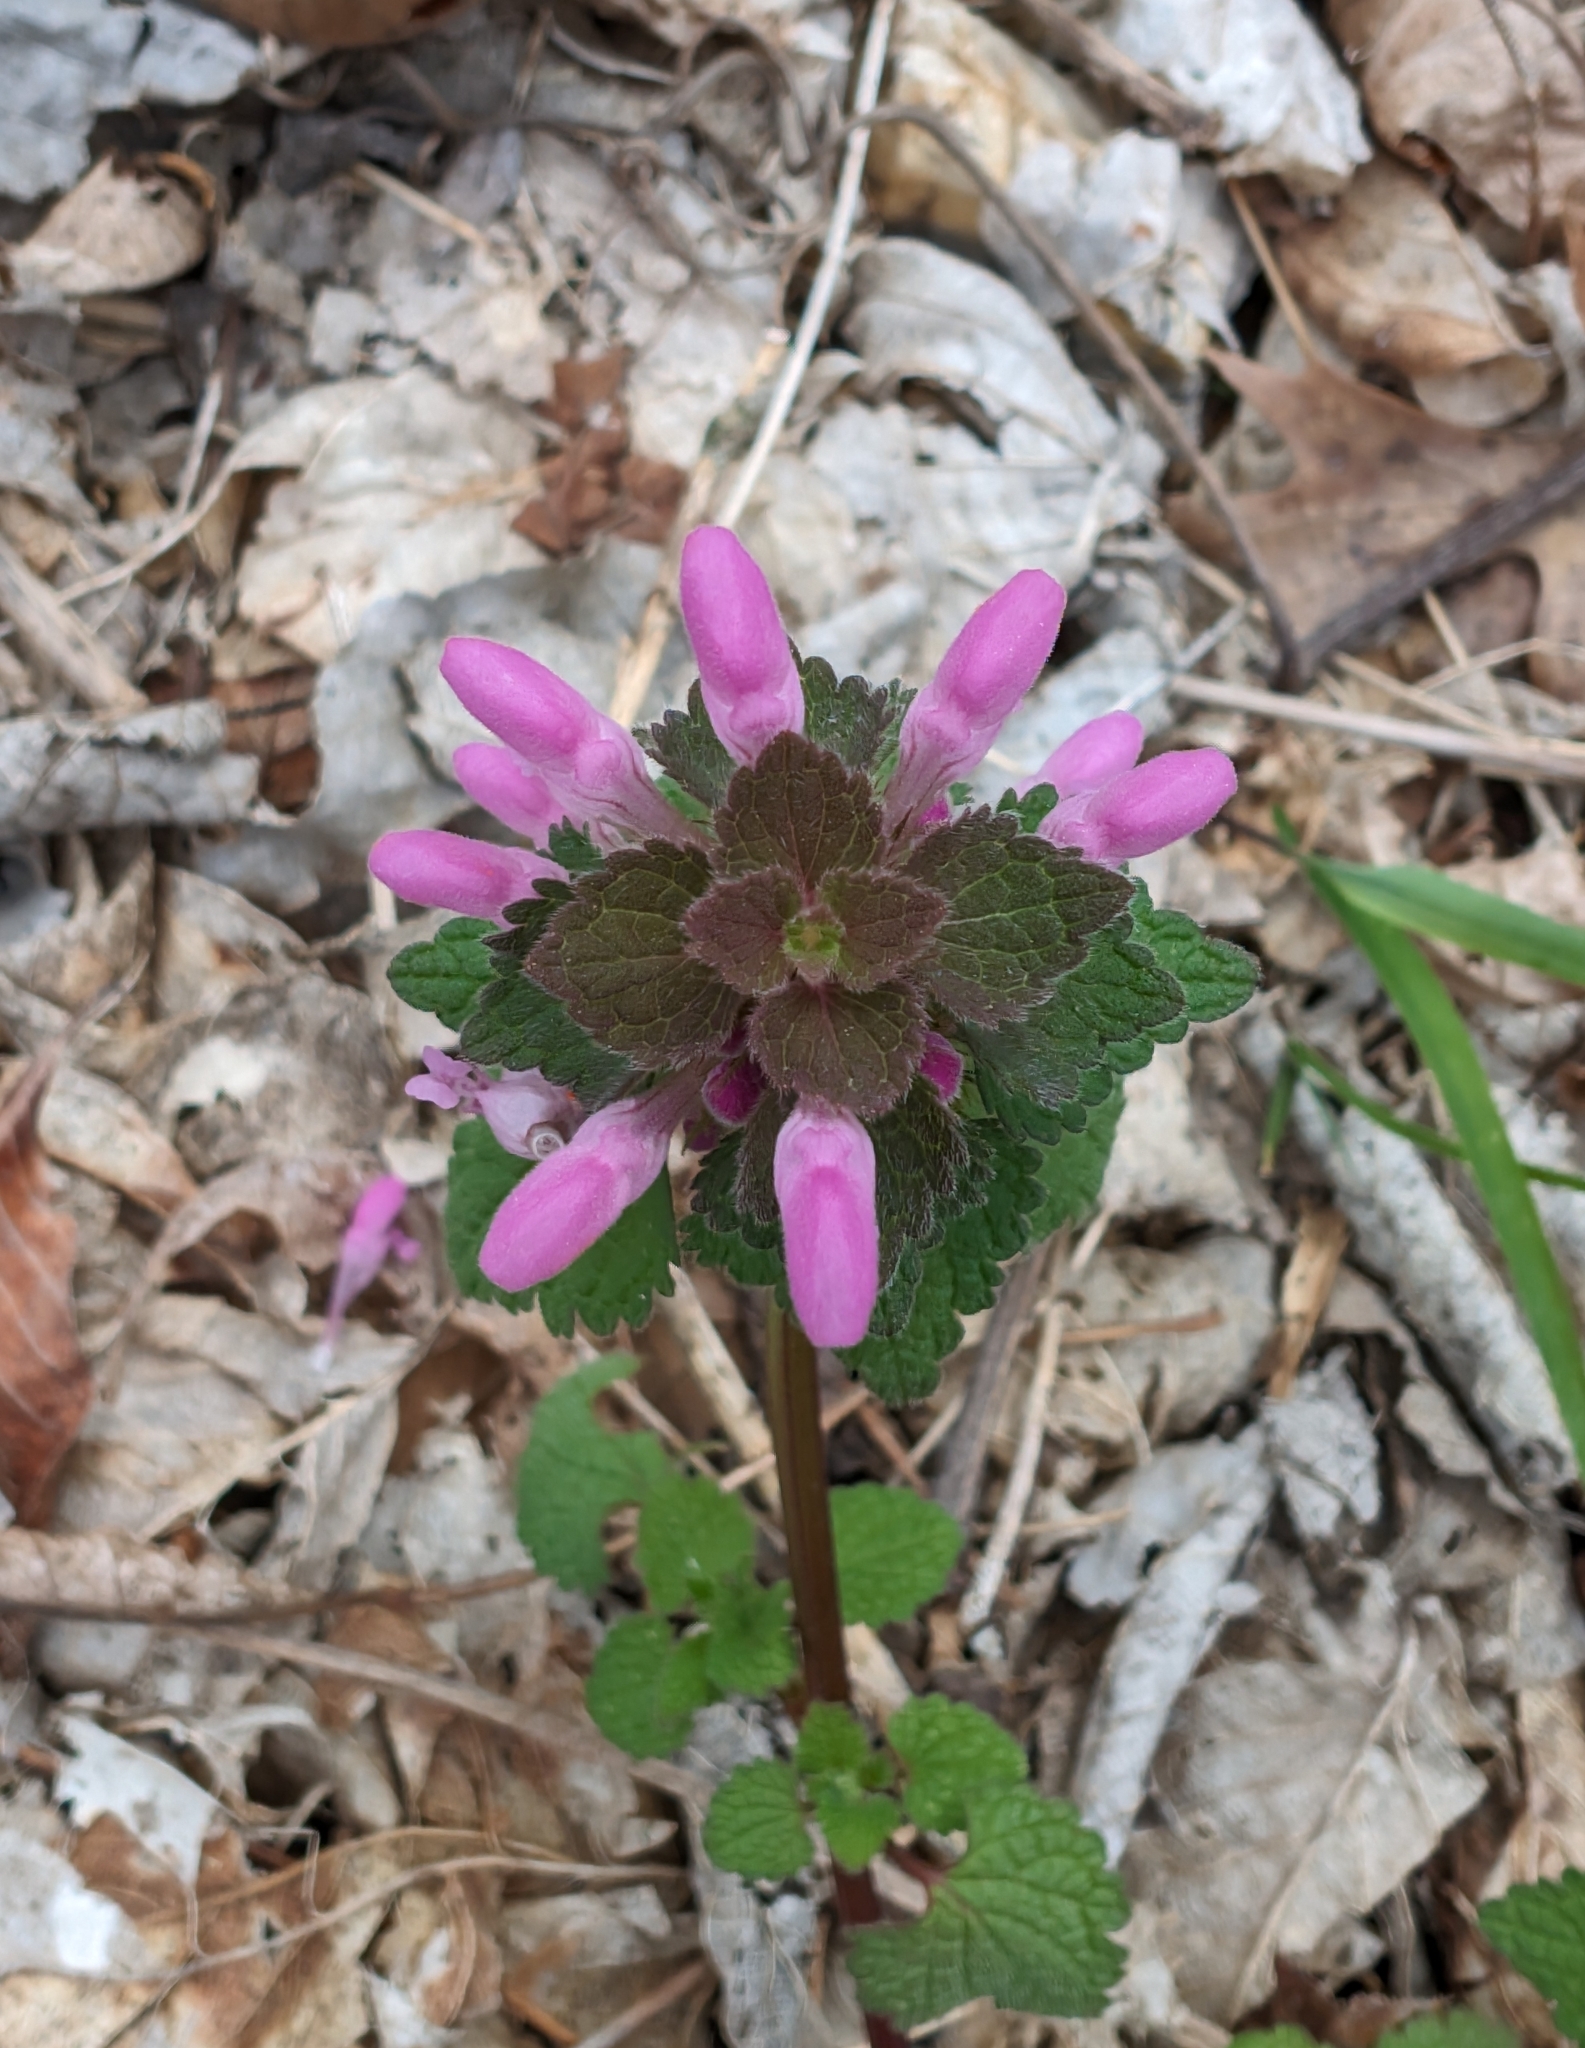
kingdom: Plantae
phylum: Tracheophyta
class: Magnoliopsida
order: Lamiales
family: Lamiaceae
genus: Lamium
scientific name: Lamium purpureum
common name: Red dead-nettle
